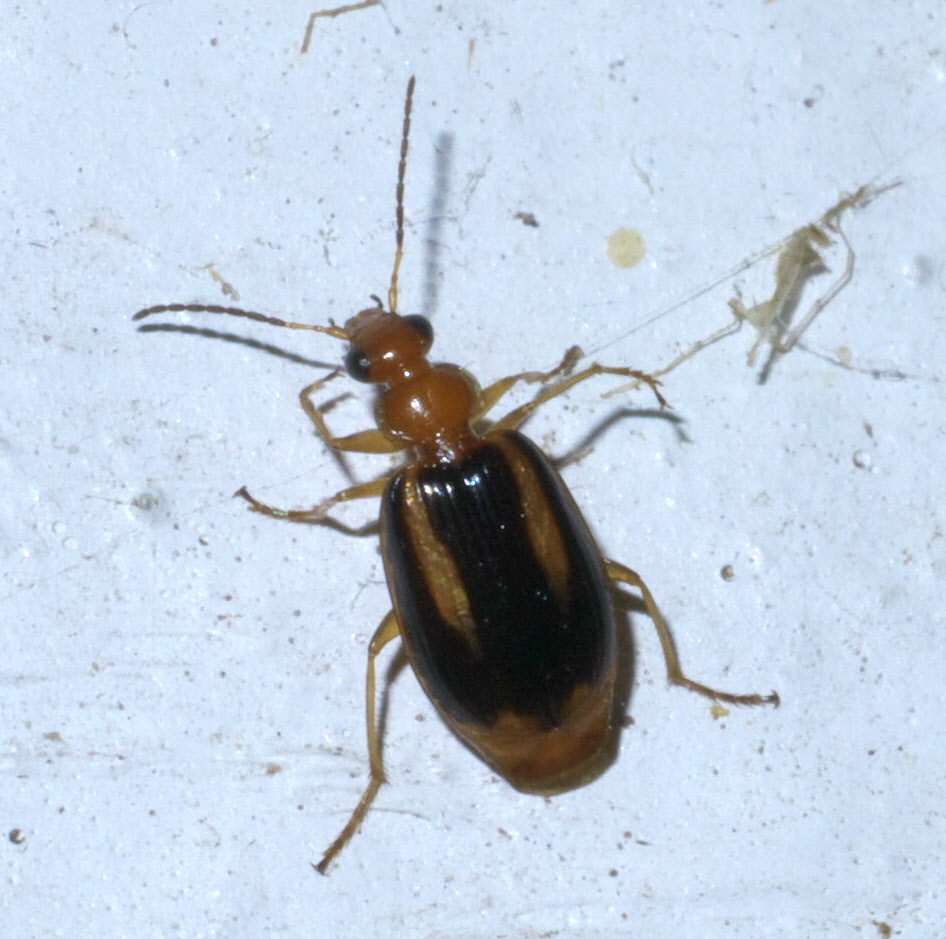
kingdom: Animalia
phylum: Arthropoda
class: Insecta
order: Coleoptera
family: Carabidae
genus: Lebia
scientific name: Lebia solea
